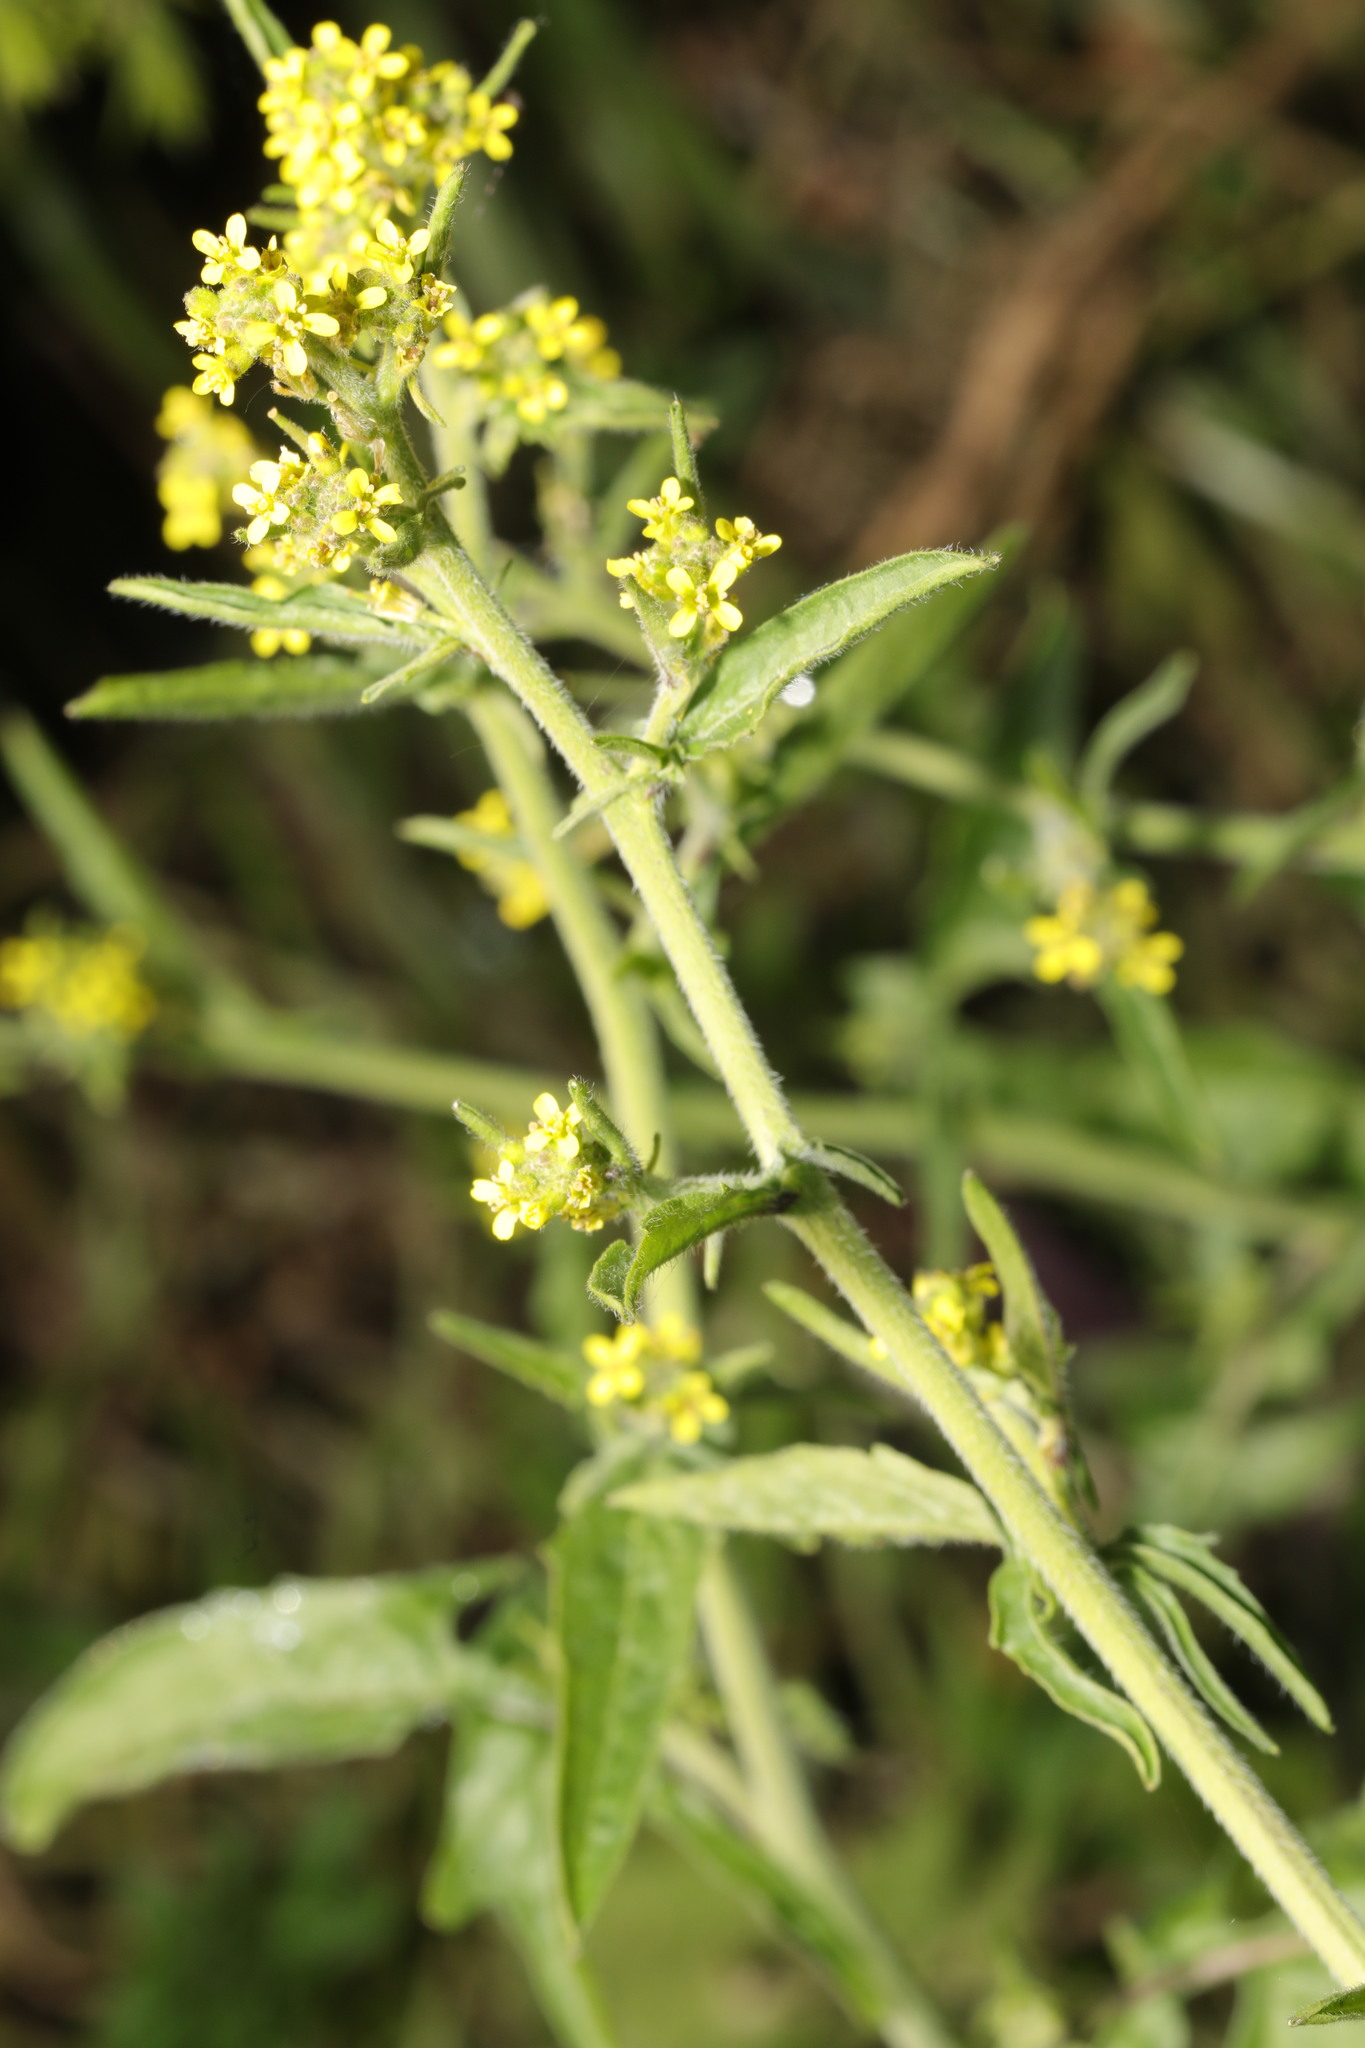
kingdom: Plantae
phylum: Tracheophyta
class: Magnoliopsida
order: Brassicales
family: Brassicaceae
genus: Sisymbrium
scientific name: Sisymbrium officinale
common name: Hedge mustard
